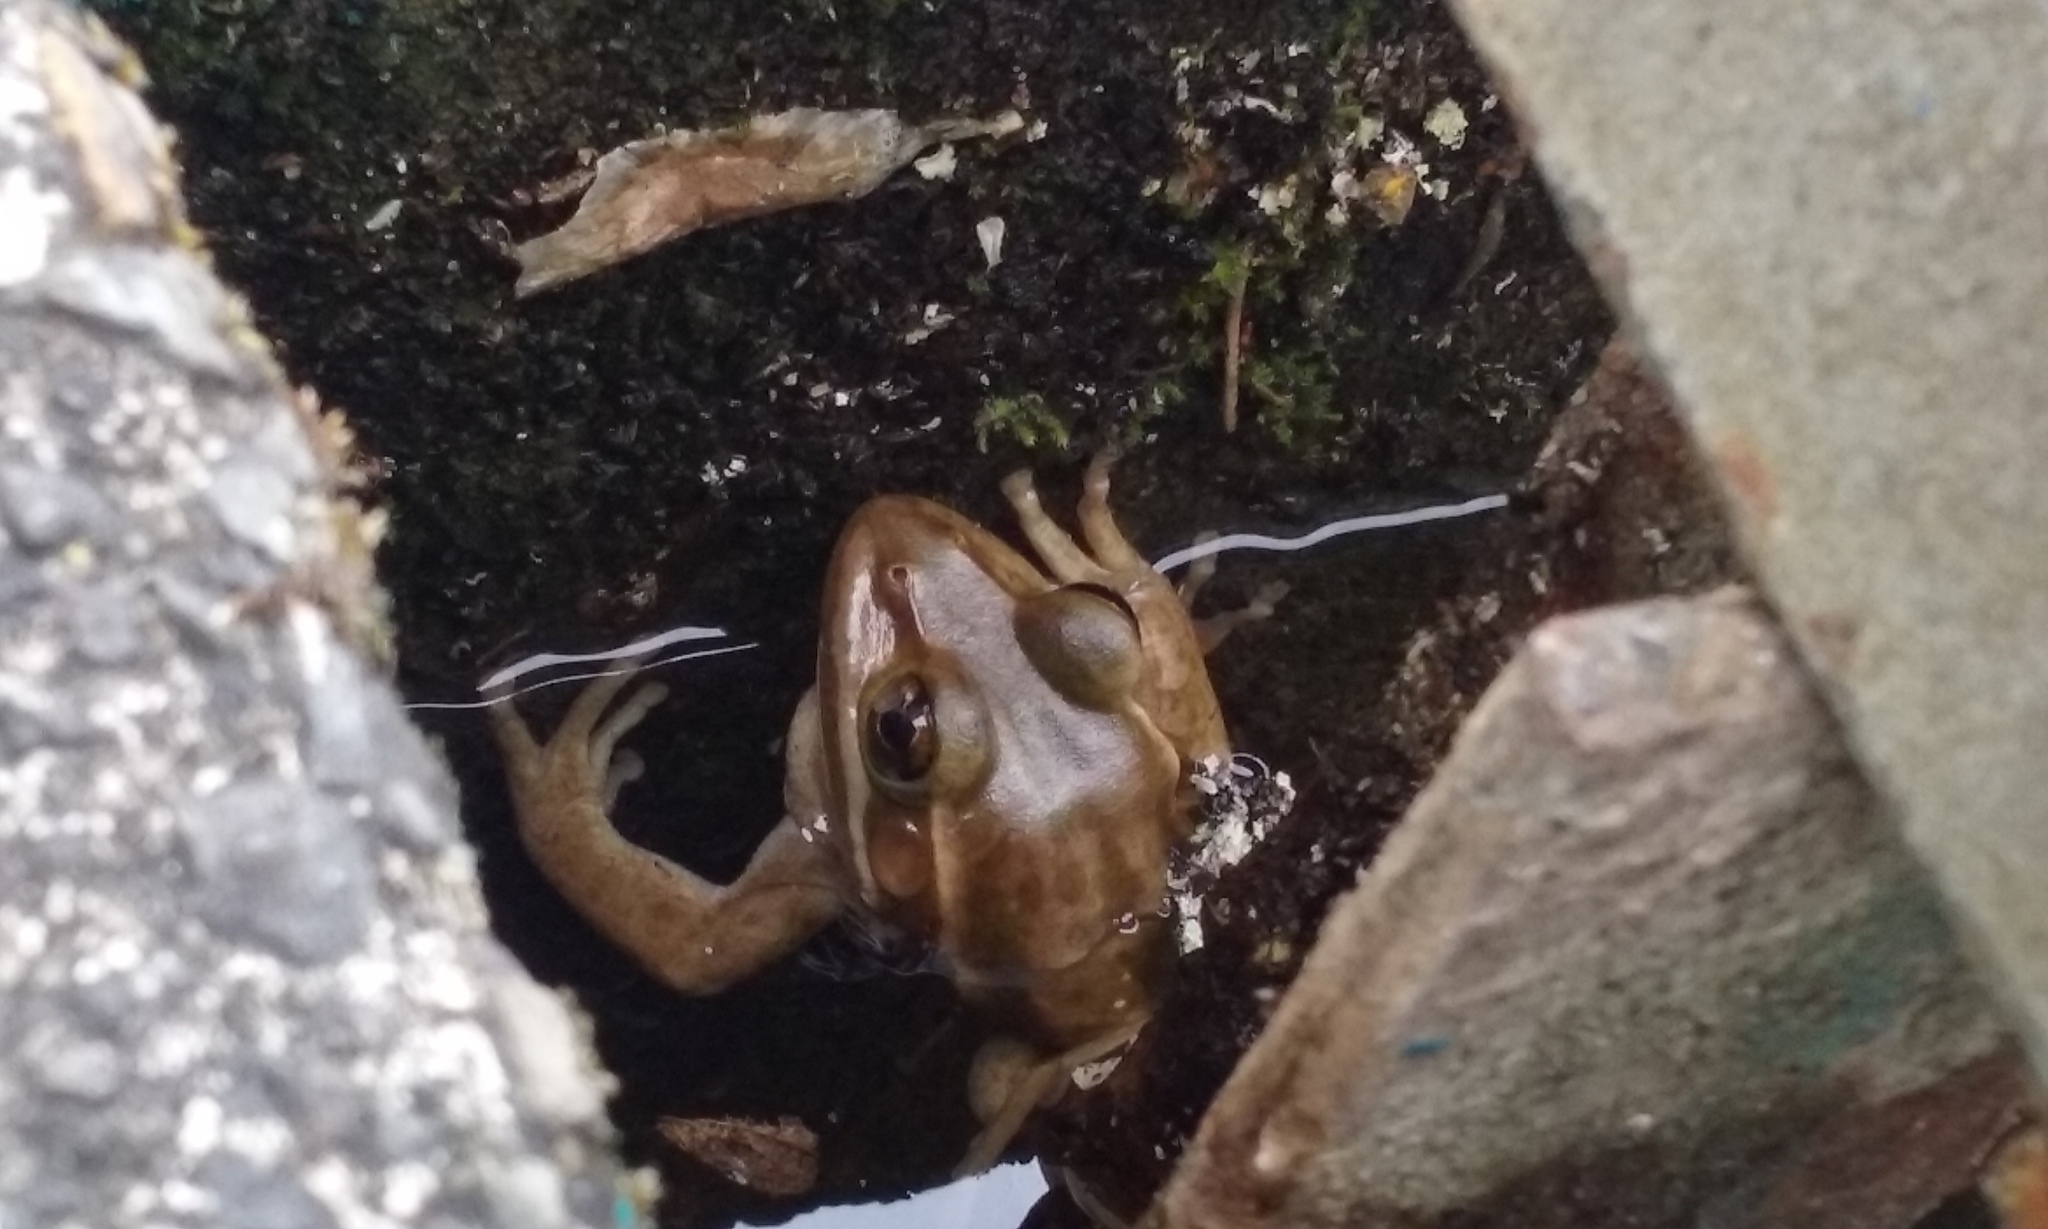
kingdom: Animalia
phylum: Chordata
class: Amphibia
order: Anura
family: Pelodryadidae
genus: Ranoidea
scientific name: Ranoidea aurea
